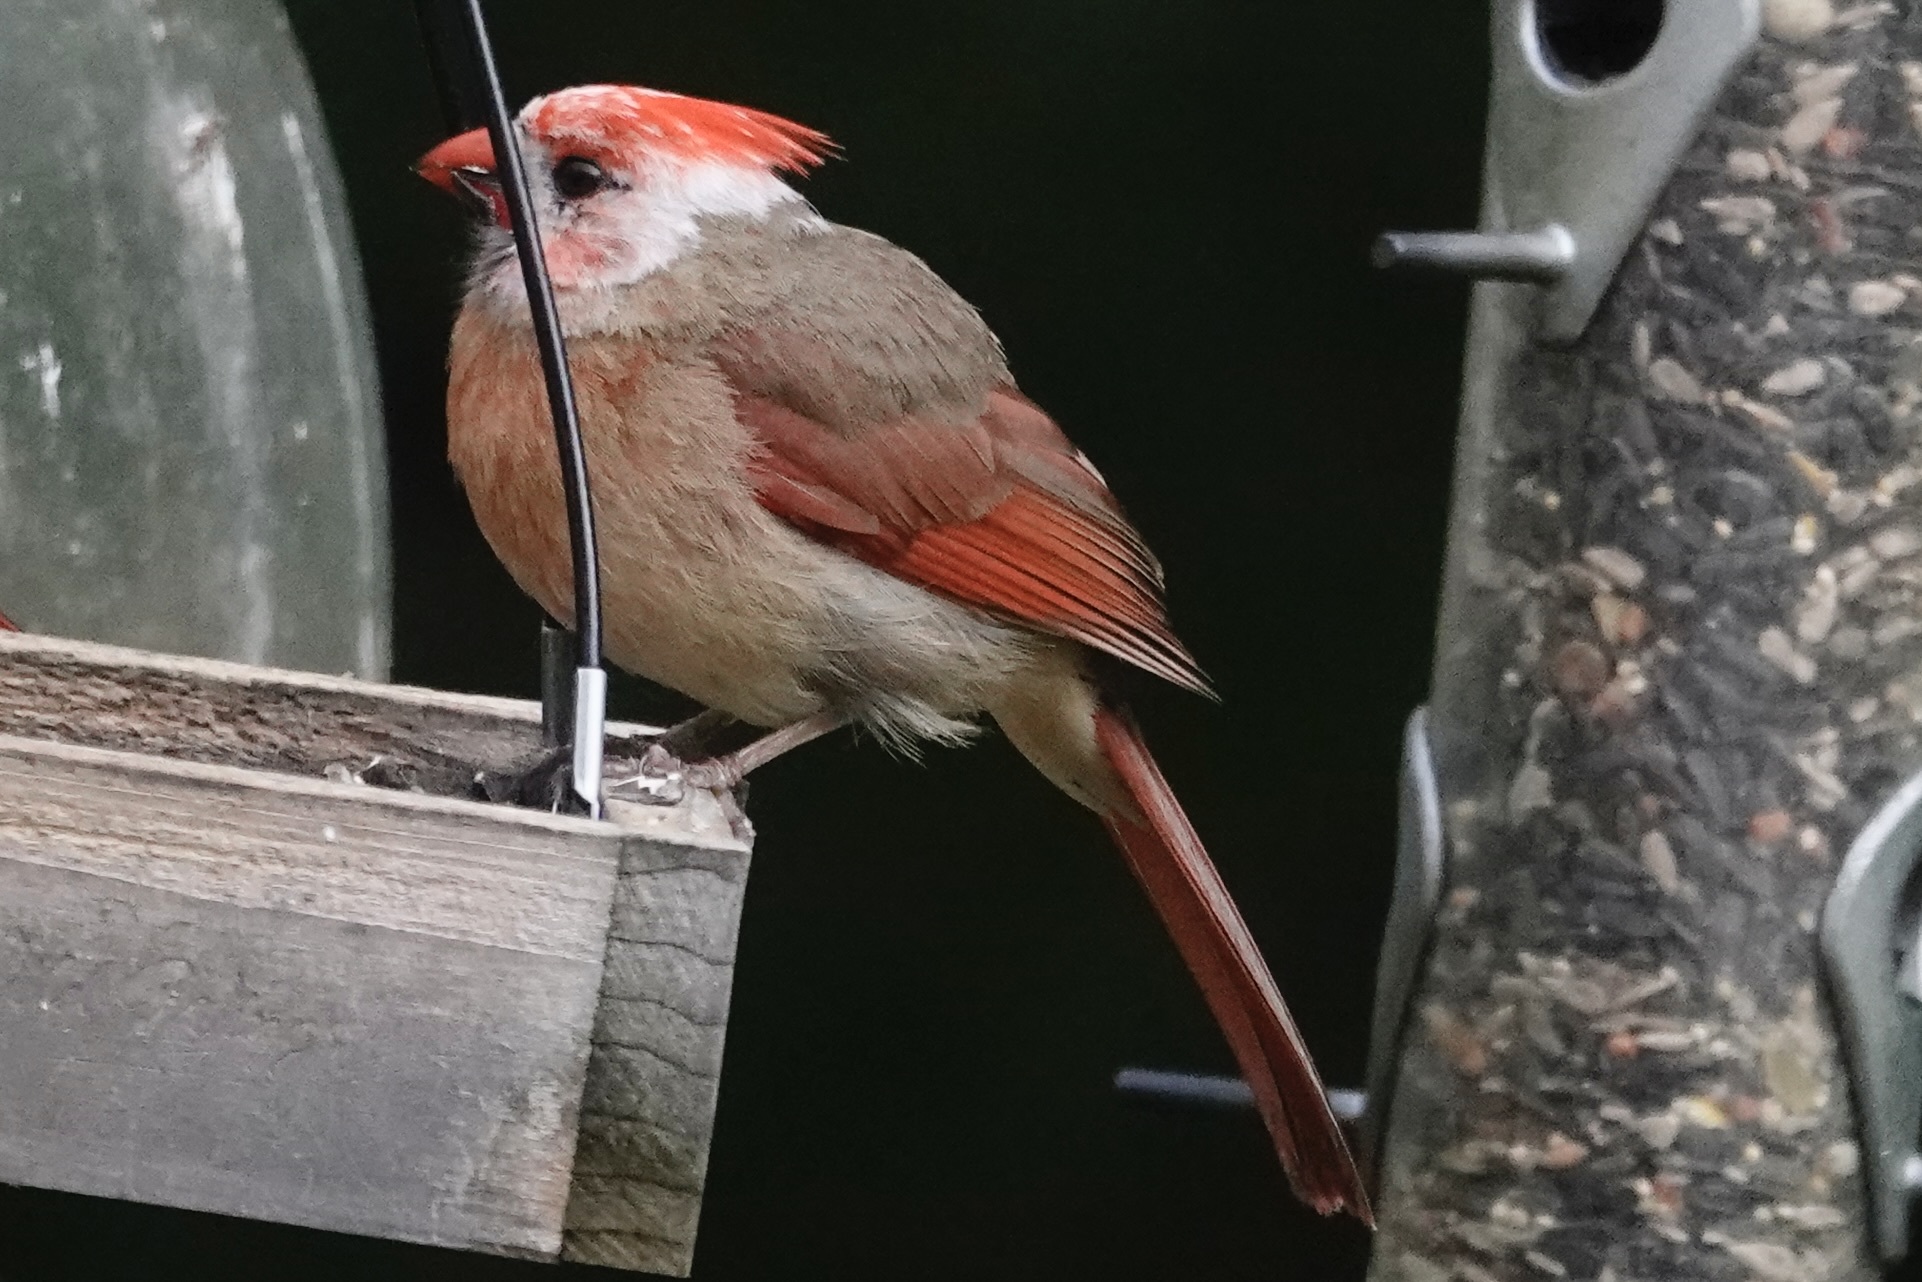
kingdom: Animalia
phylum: Chordata
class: Aves
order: Passeriformes
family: Cardinalidae
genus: Cardinalis
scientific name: Cardinalis cardinalis
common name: Northern cardinal
